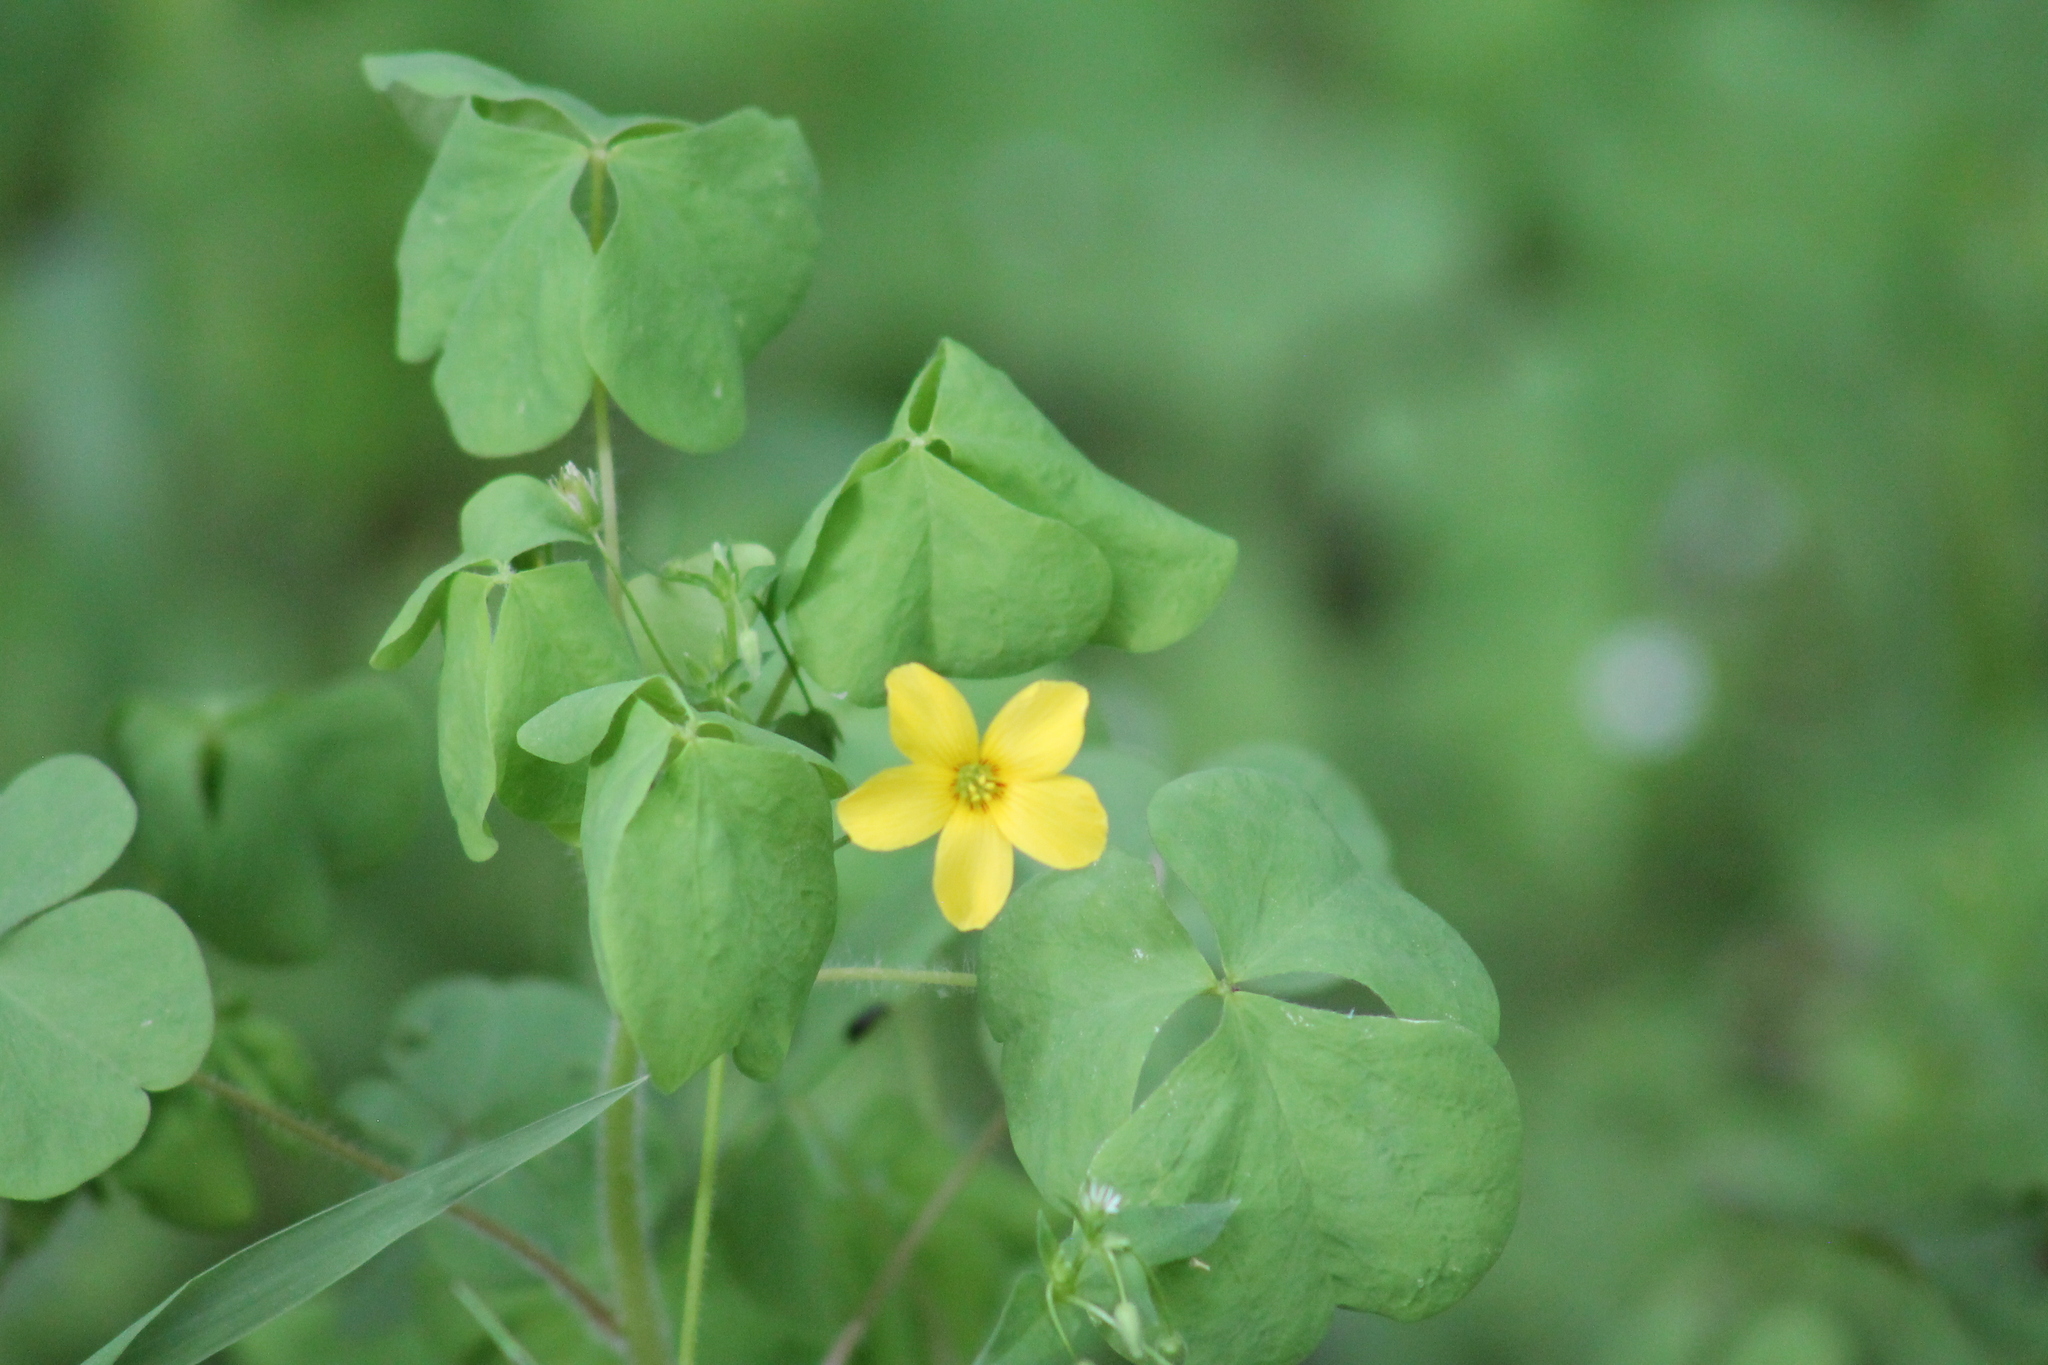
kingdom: Plantae
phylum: Tracheophyta
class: Magnoliopsida
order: Oxalidales
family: Oxalidaceae
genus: Oxalis
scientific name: Oxalis illinoensis
